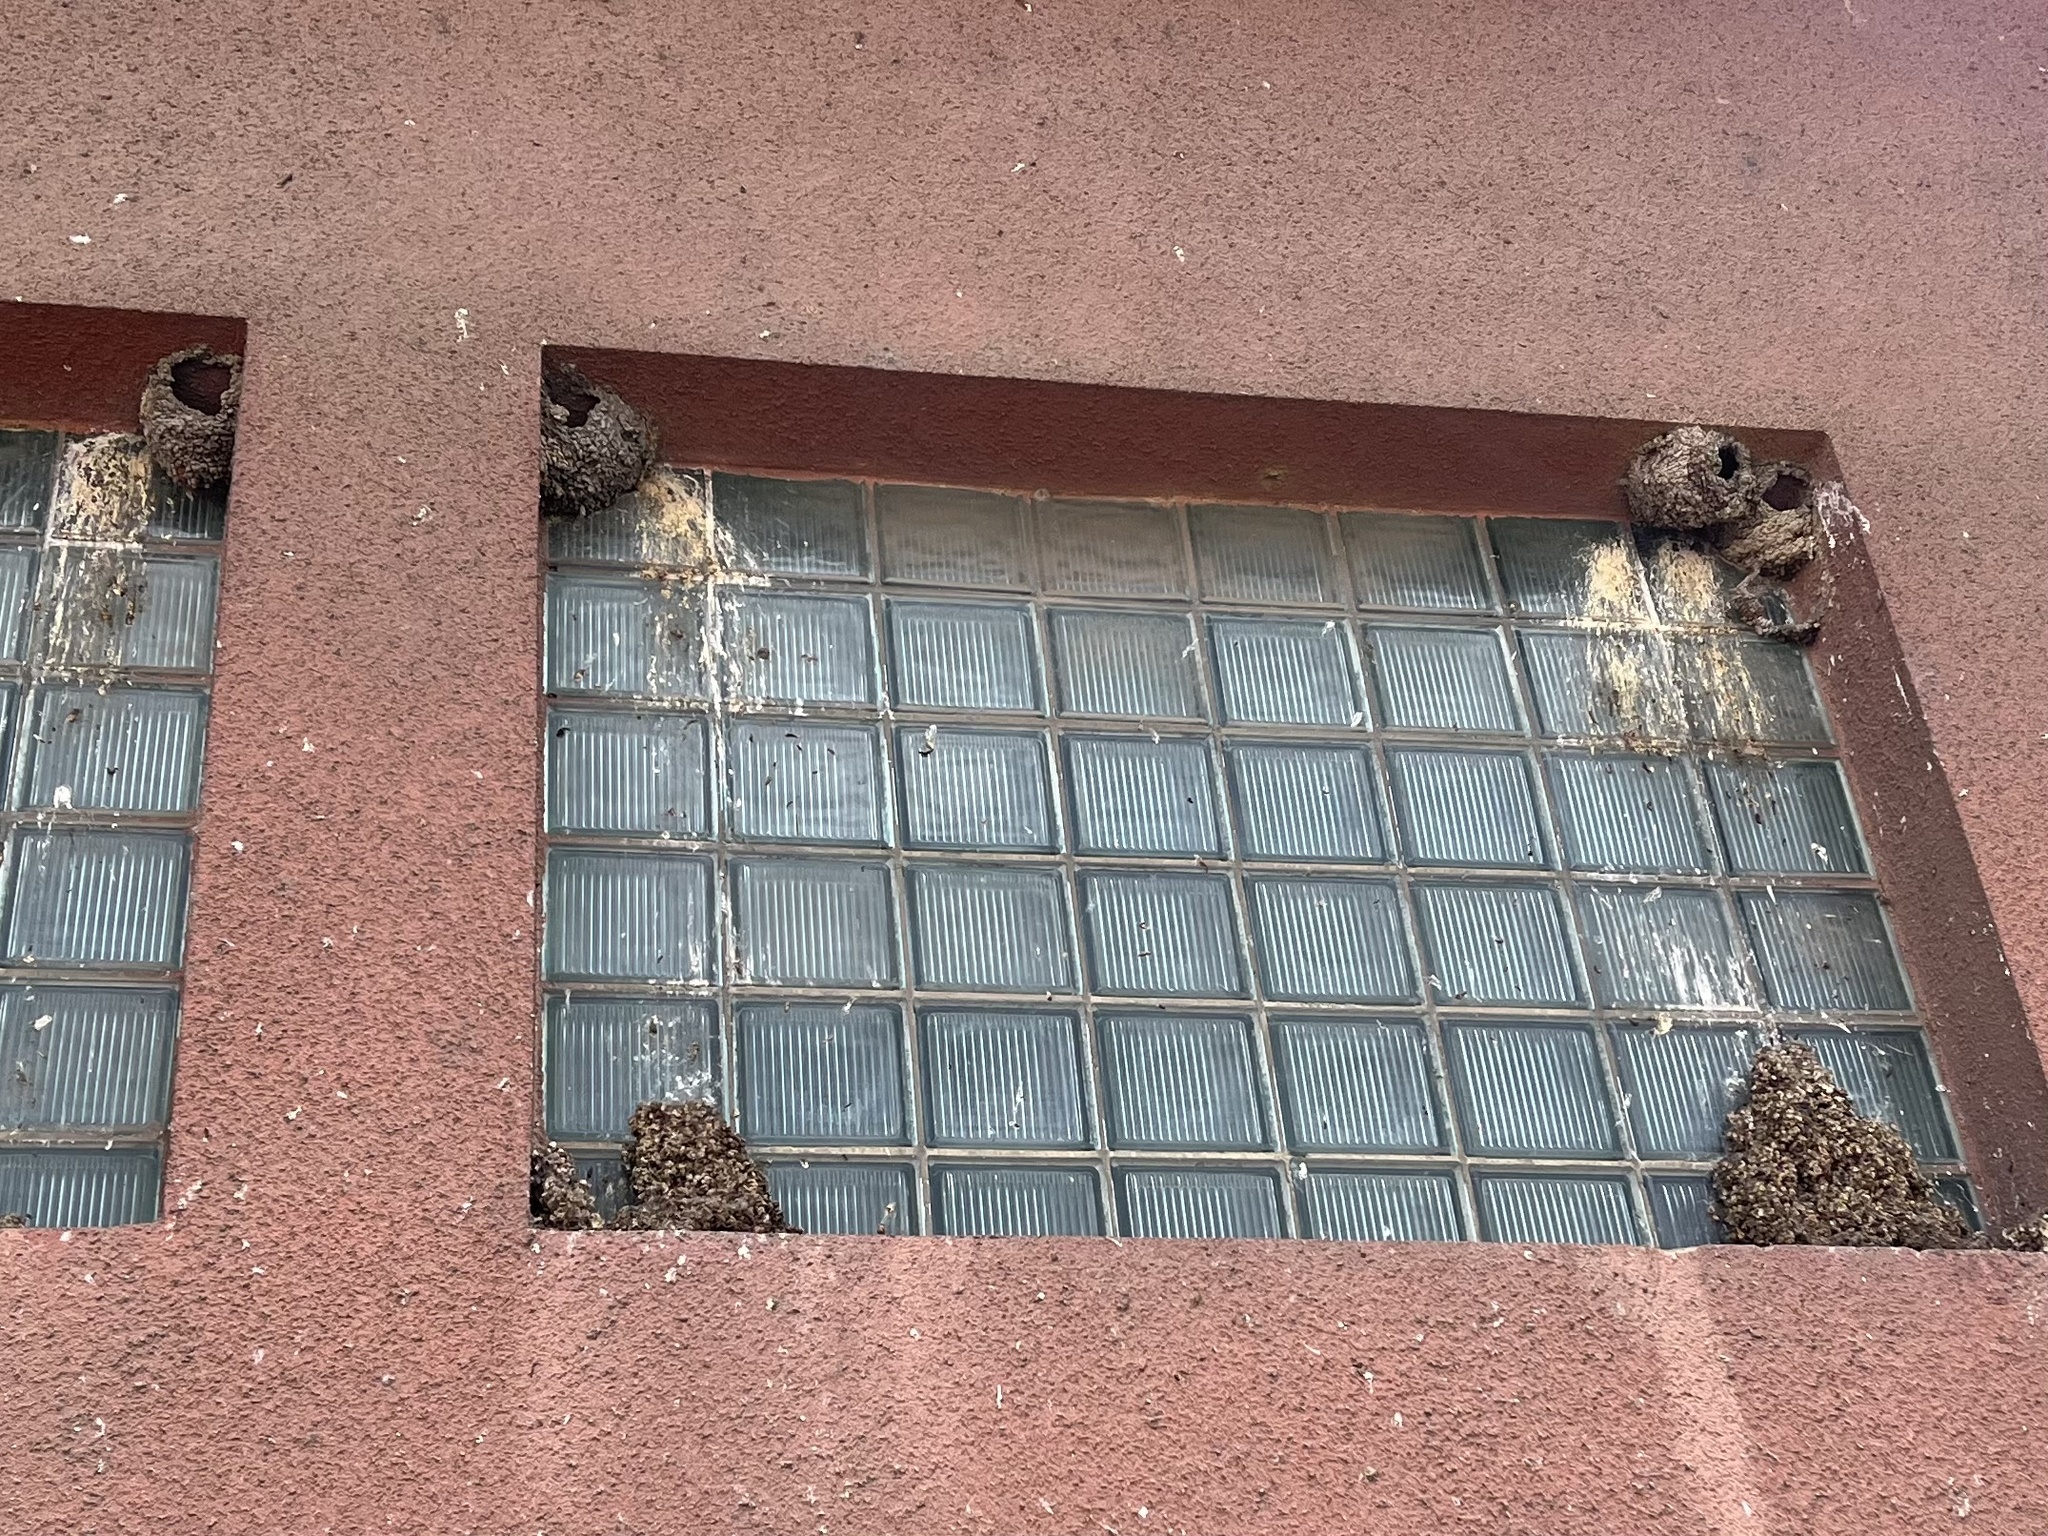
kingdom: Animalia
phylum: Chordata
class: Aves
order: Passeriformes
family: Hirundinidae
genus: Delichon
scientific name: Delichon urbicum
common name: Common house martin
